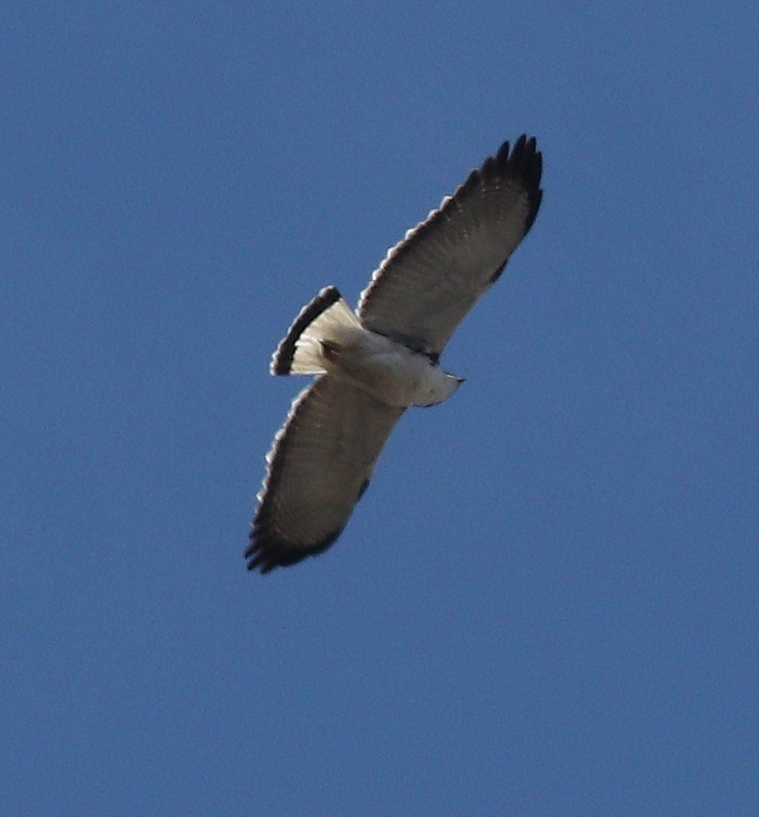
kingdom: Animalia
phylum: Chordata
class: Aves
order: Accipitriformes
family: Accipitridae
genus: Buteo
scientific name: Buteo polyosoma
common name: Variable hawk
